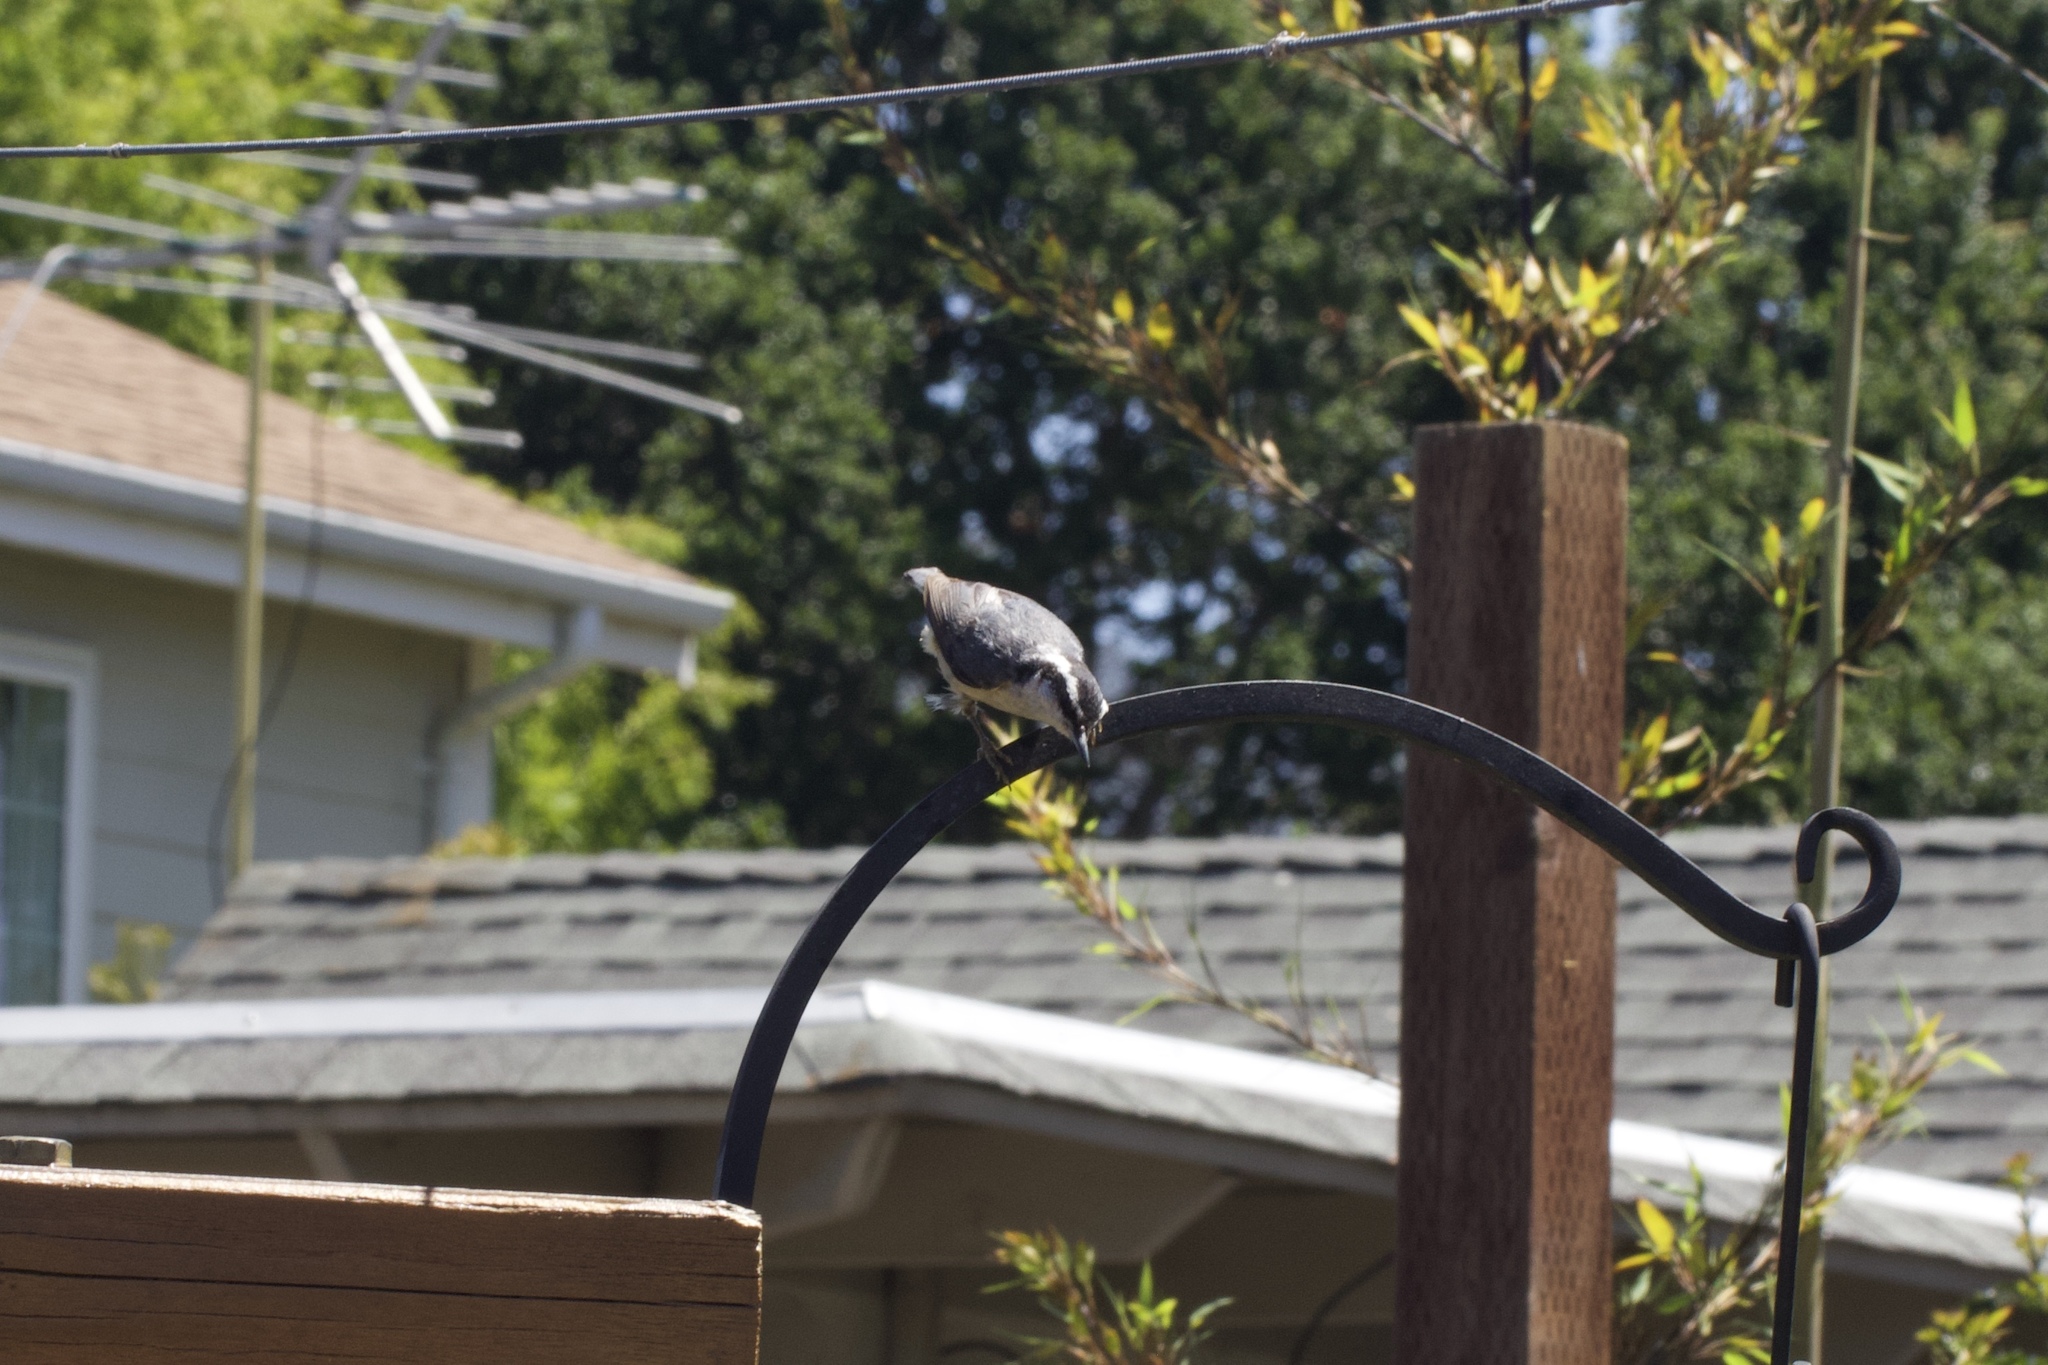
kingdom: Animalia
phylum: Chordata
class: Aves
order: Passeriformes
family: Sittidae
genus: Sitta
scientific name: Sitta canadensis
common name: Red-breasted nuthatch
